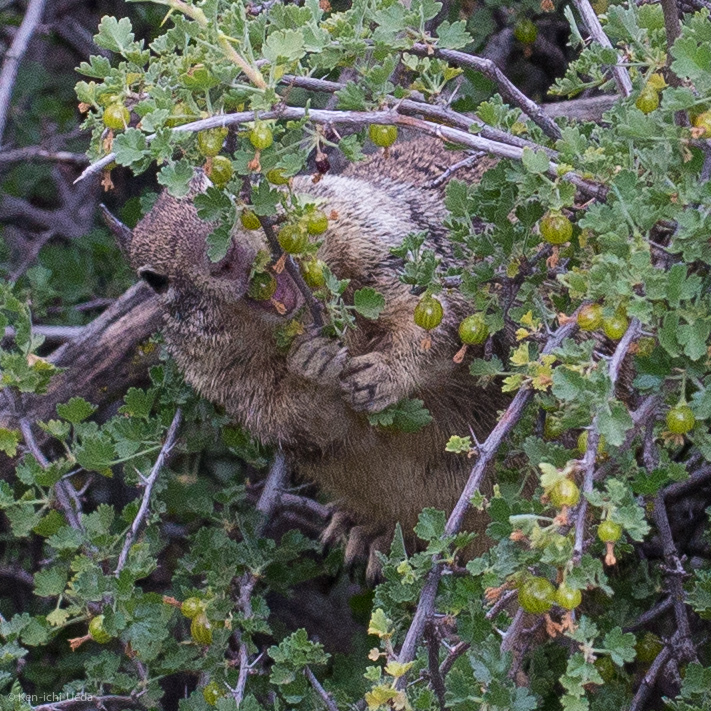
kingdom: Animalia
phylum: Chordata
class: Mammalia
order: Rodentia
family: Sciuridae
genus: Otospermophilus
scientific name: Otospermophilus beecheyi
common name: California ground squirrel
